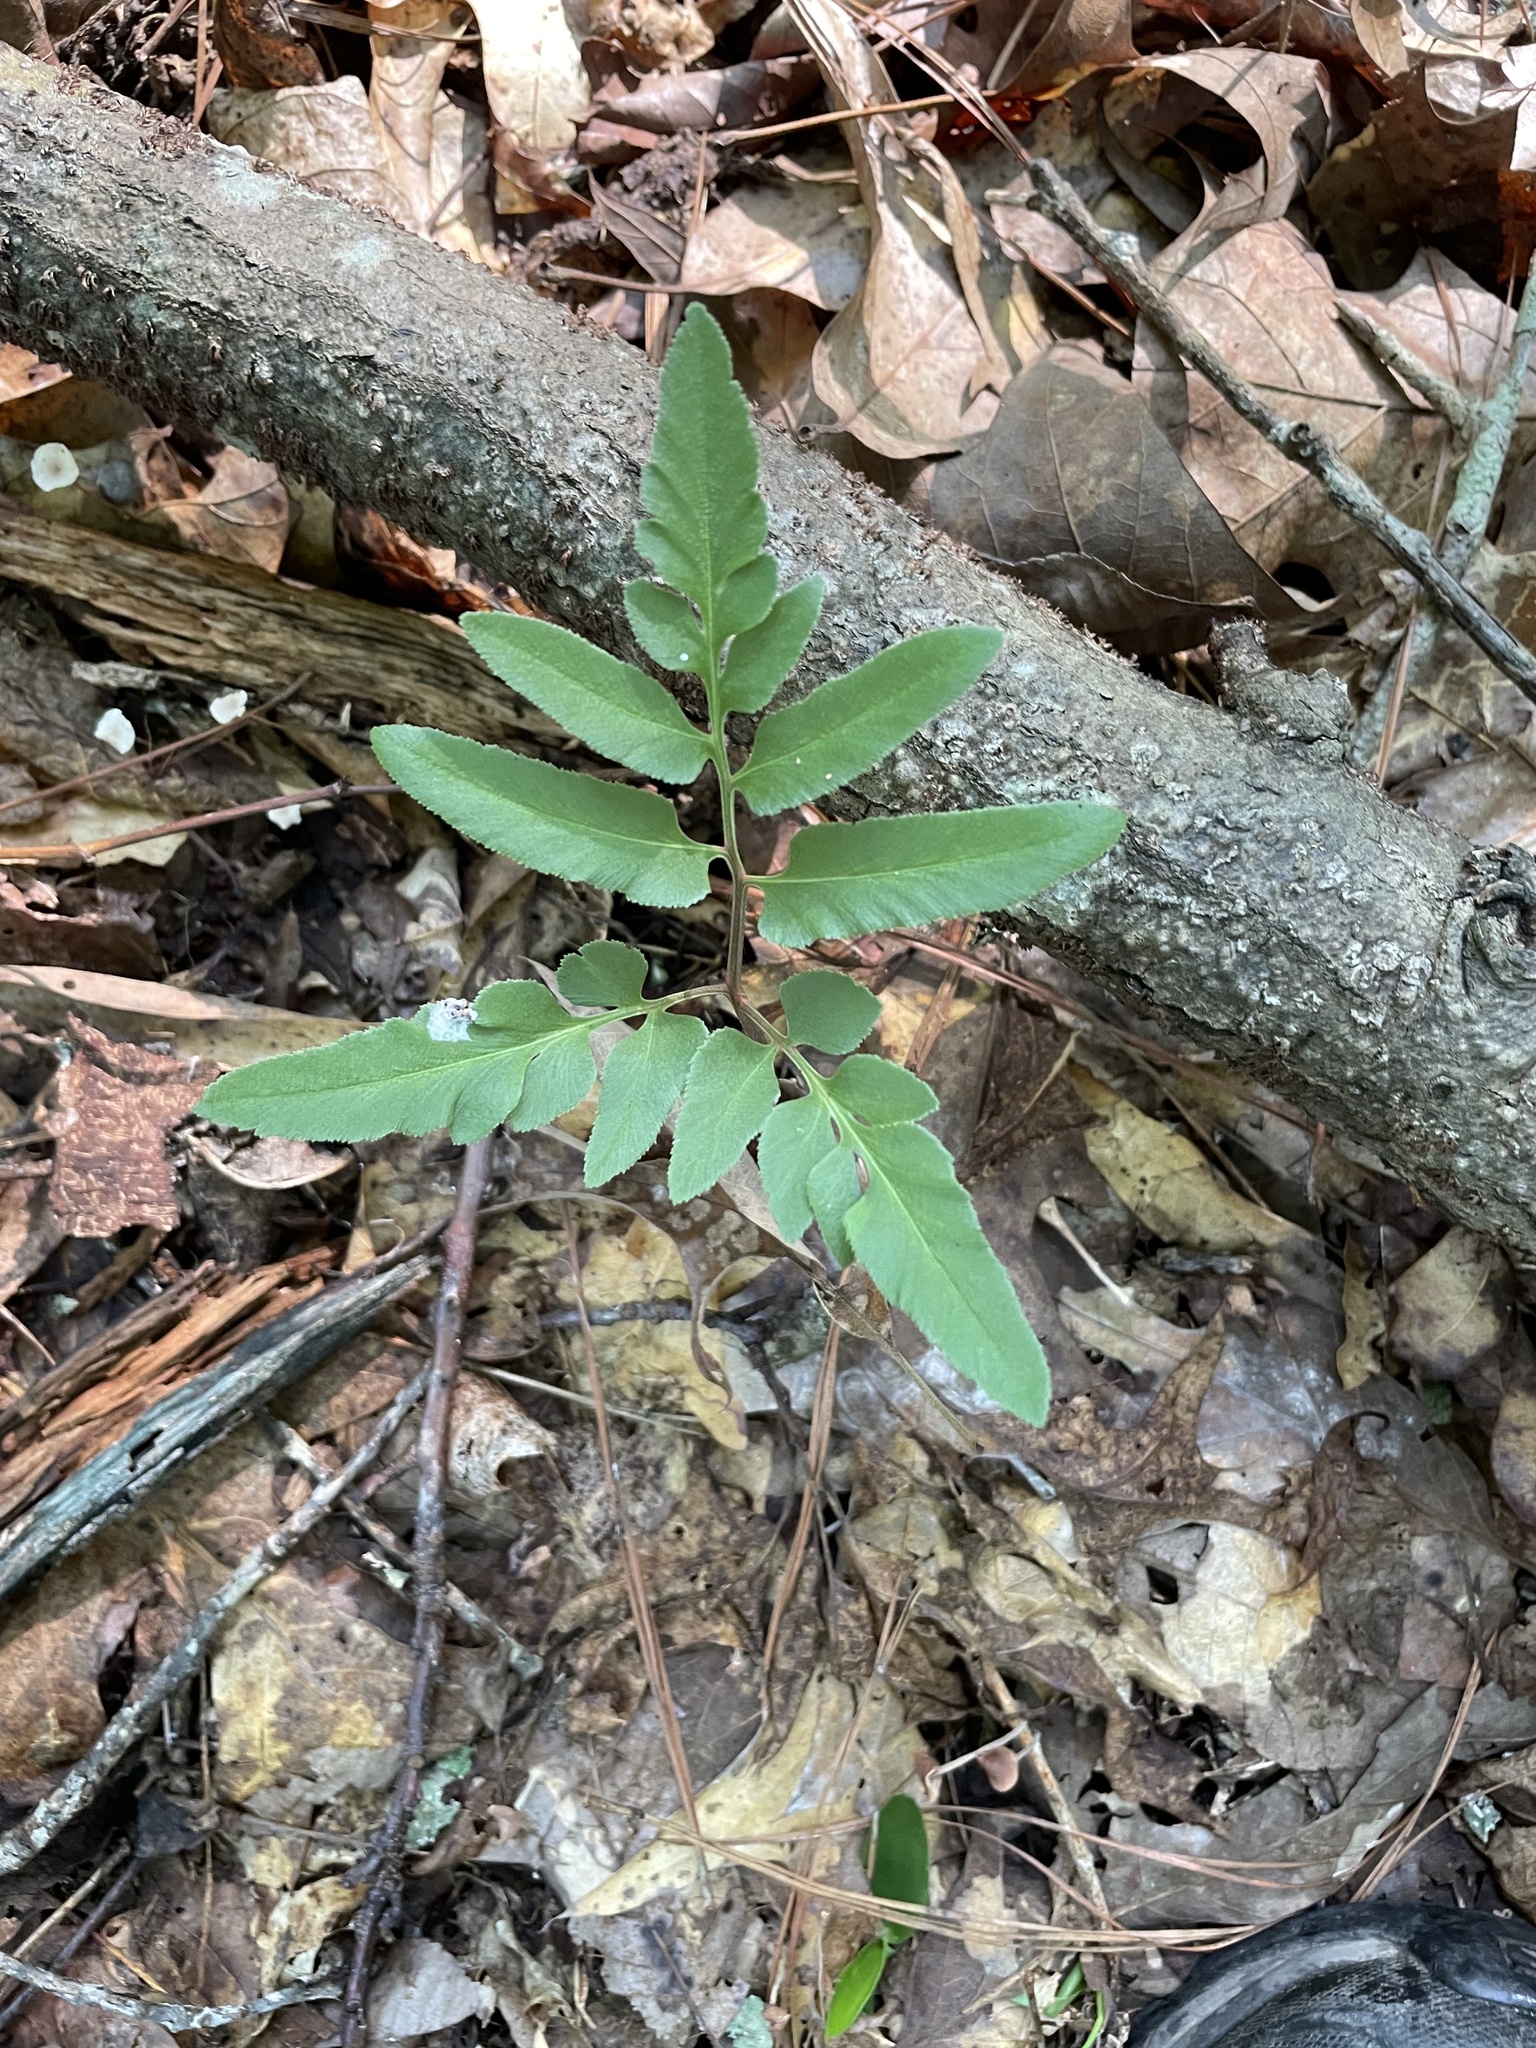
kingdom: Plantae
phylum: Tracheophyta
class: Polypodiopsida
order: Ophioglossales
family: Ophioglossaceae
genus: Sceptridium
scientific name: Sceptridium biternatum
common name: Sparse-lobed grapefern
